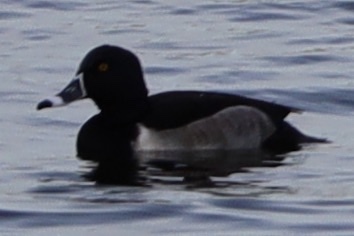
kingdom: Animalia
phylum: Chordata
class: Aves
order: Anseriformes
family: Anatidae
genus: Aythya
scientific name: Aythya collaris
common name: Ring-necked duck
